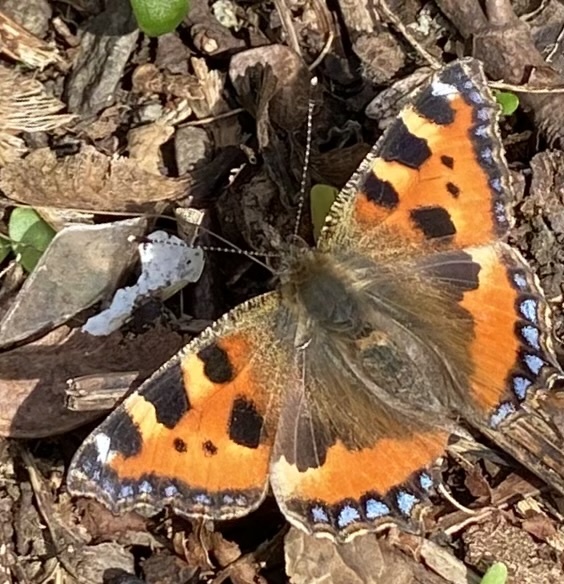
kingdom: Animalia
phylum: Arthropoda
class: Insecta
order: Lepidoptera
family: Nymphalidae
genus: Aglais
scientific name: Aglais urticae
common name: Small tortoiseshell
